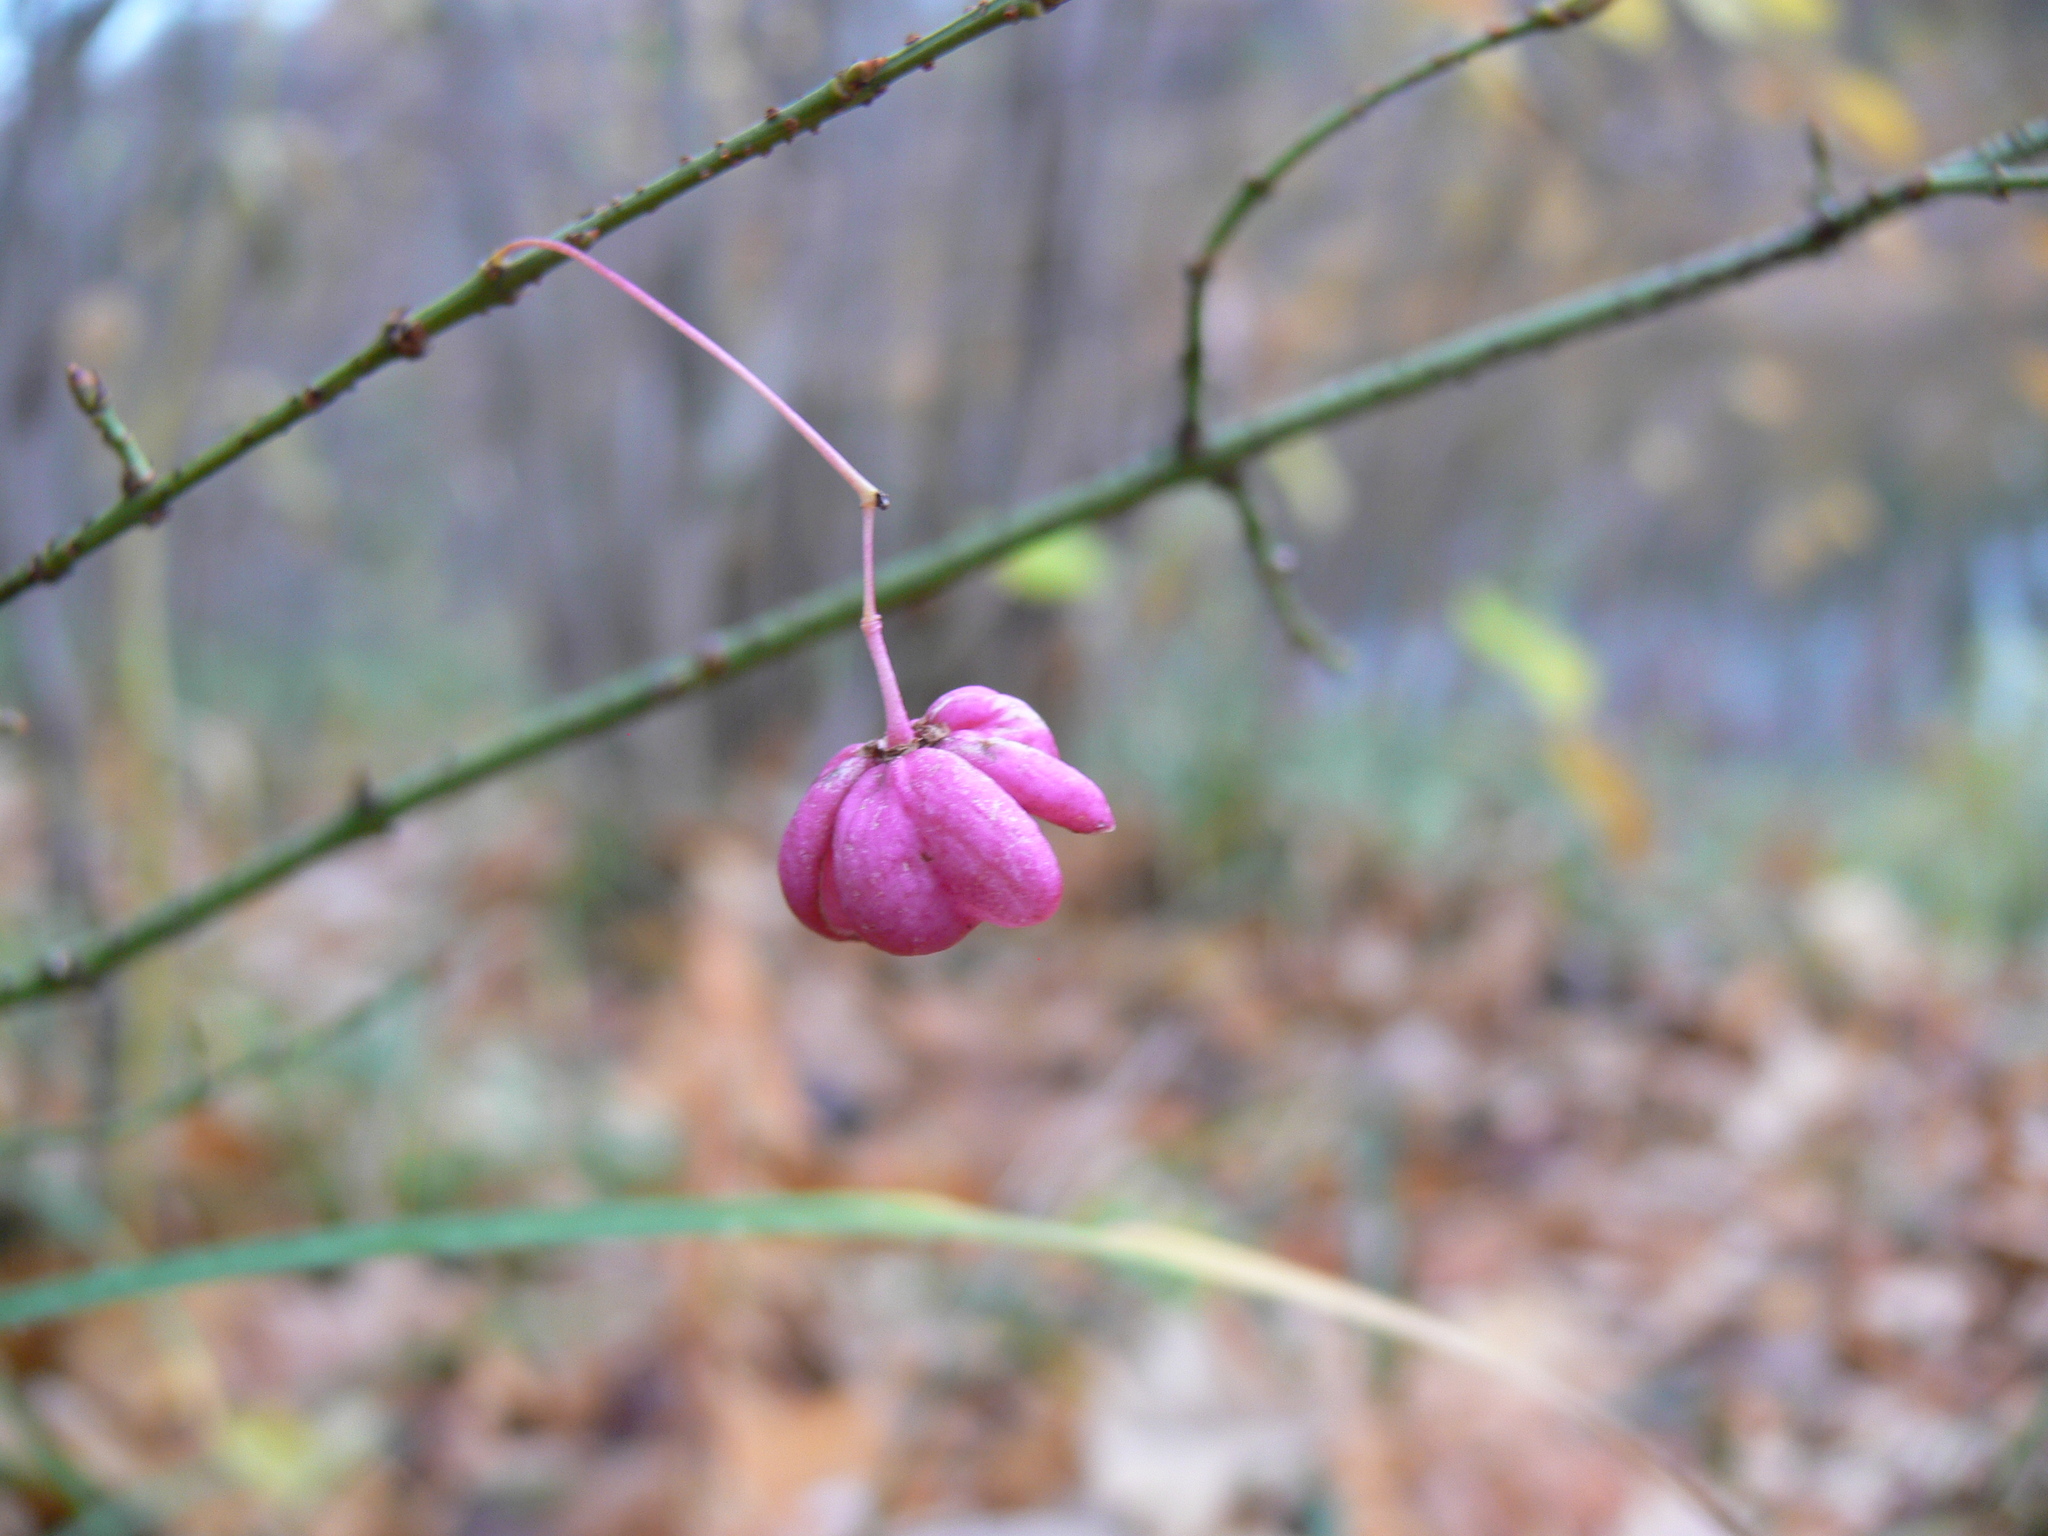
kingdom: Plantae
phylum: Tracheophyta
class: Magnoliopsida
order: Celastrales
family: Celastraceae
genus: Euonymus
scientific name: Euonymus verrucosus
